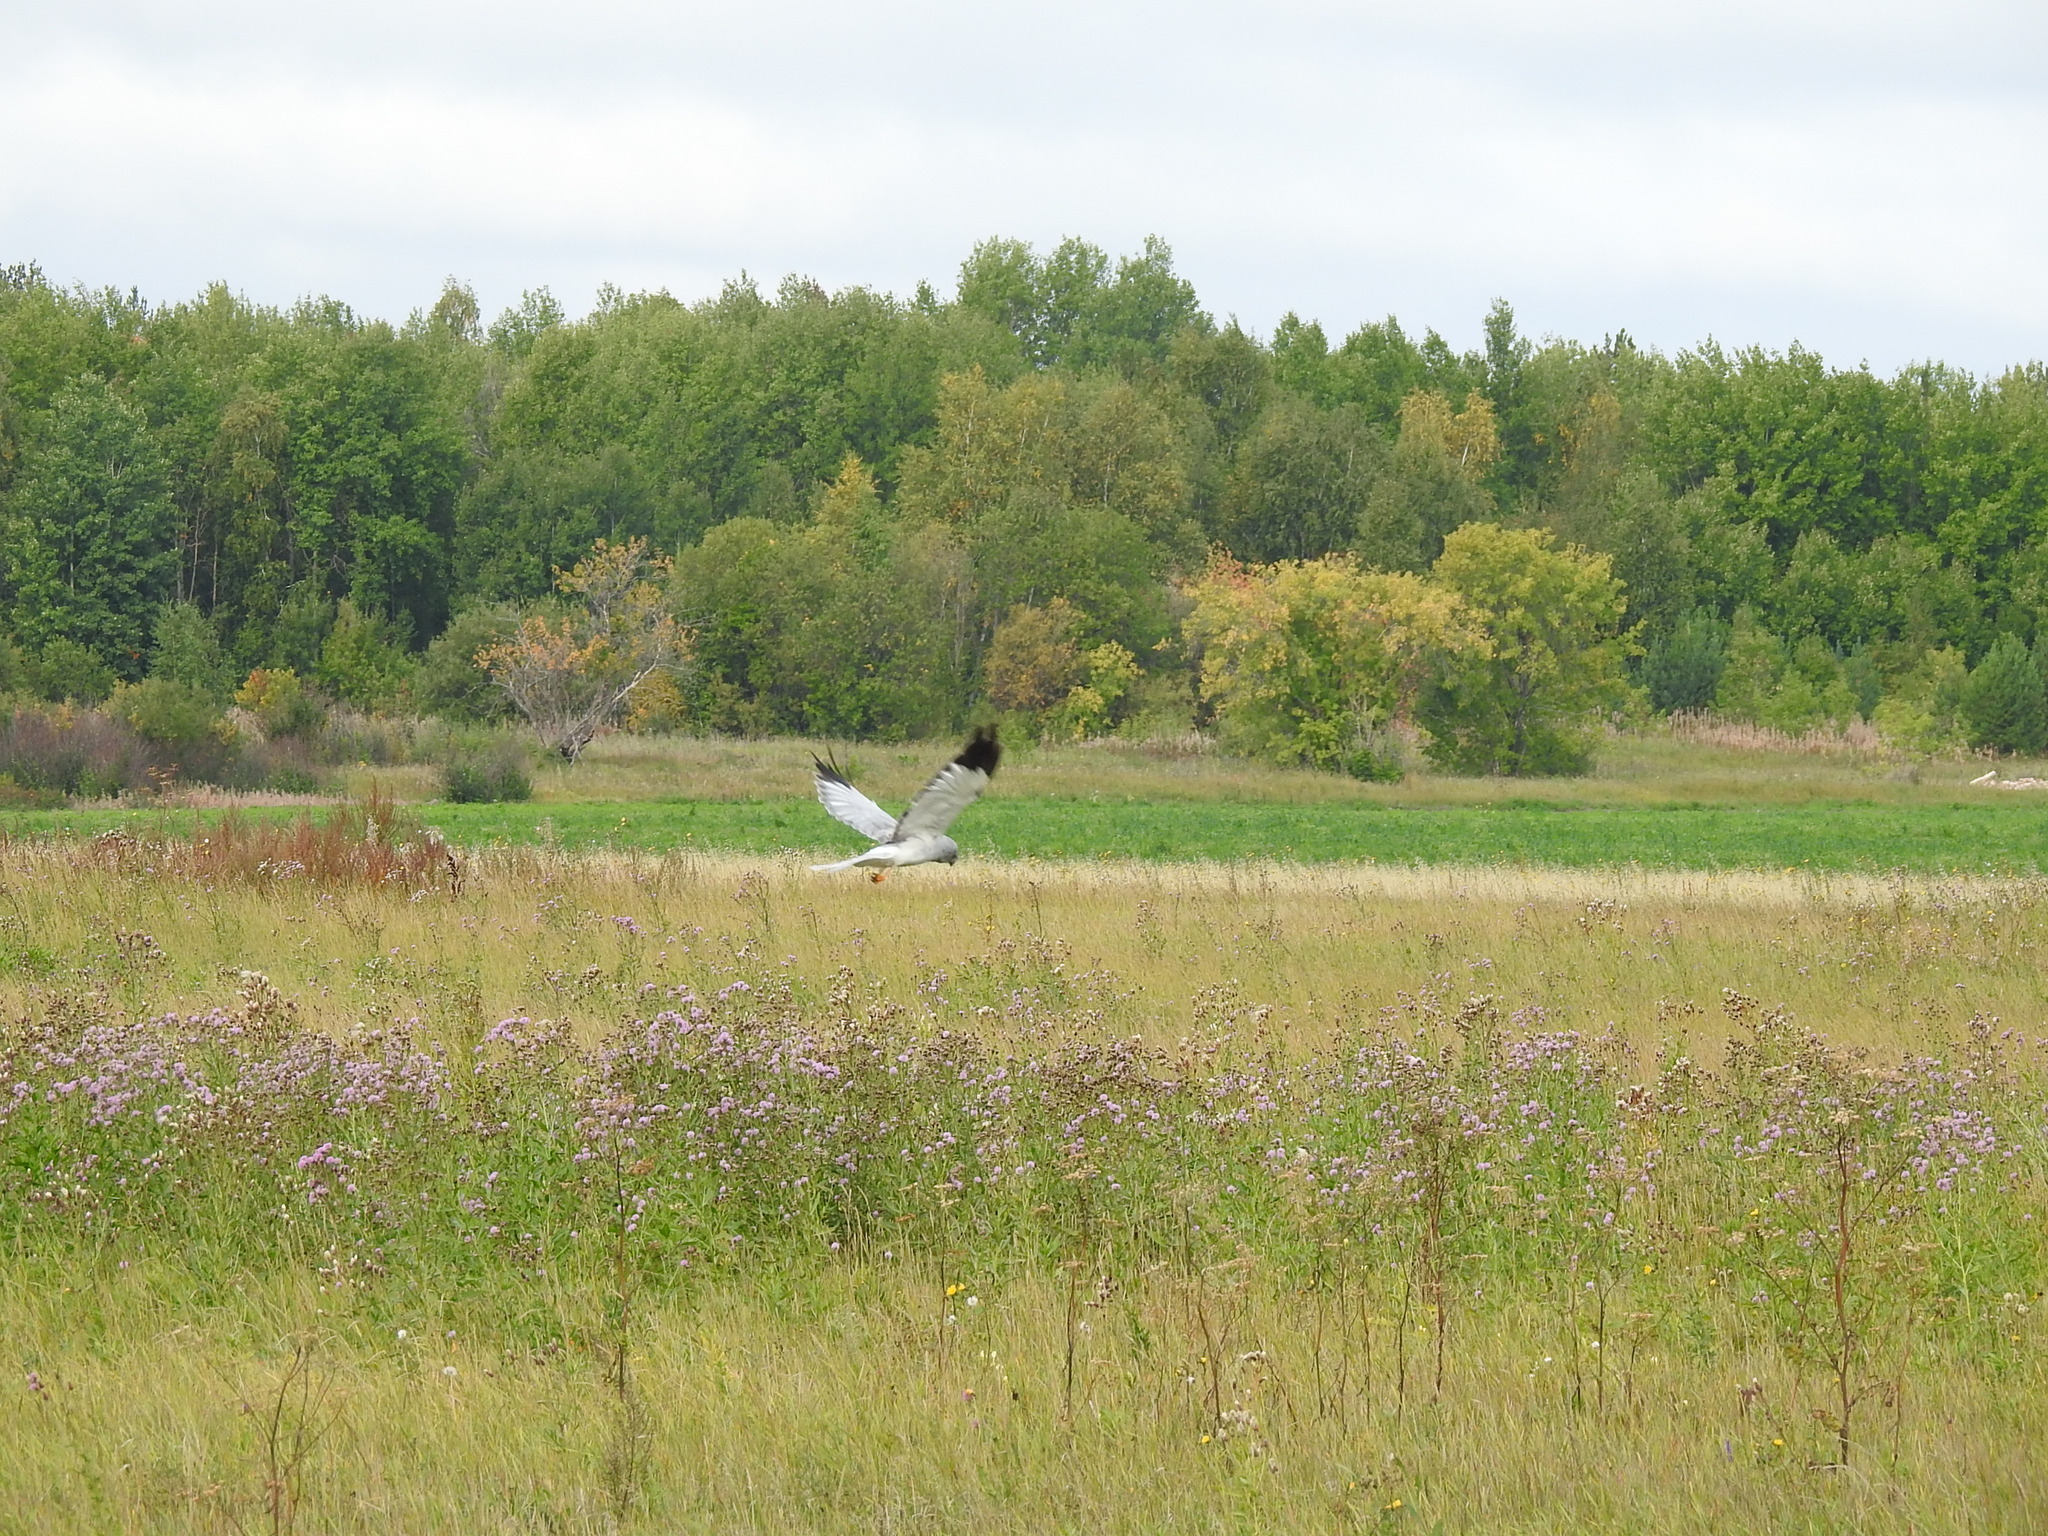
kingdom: Animalia
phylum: Chordata
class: Aves
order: Accipitriformes
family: Accipitridae
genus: Circus
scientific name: Circus cyaneus
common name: Hen harrier
